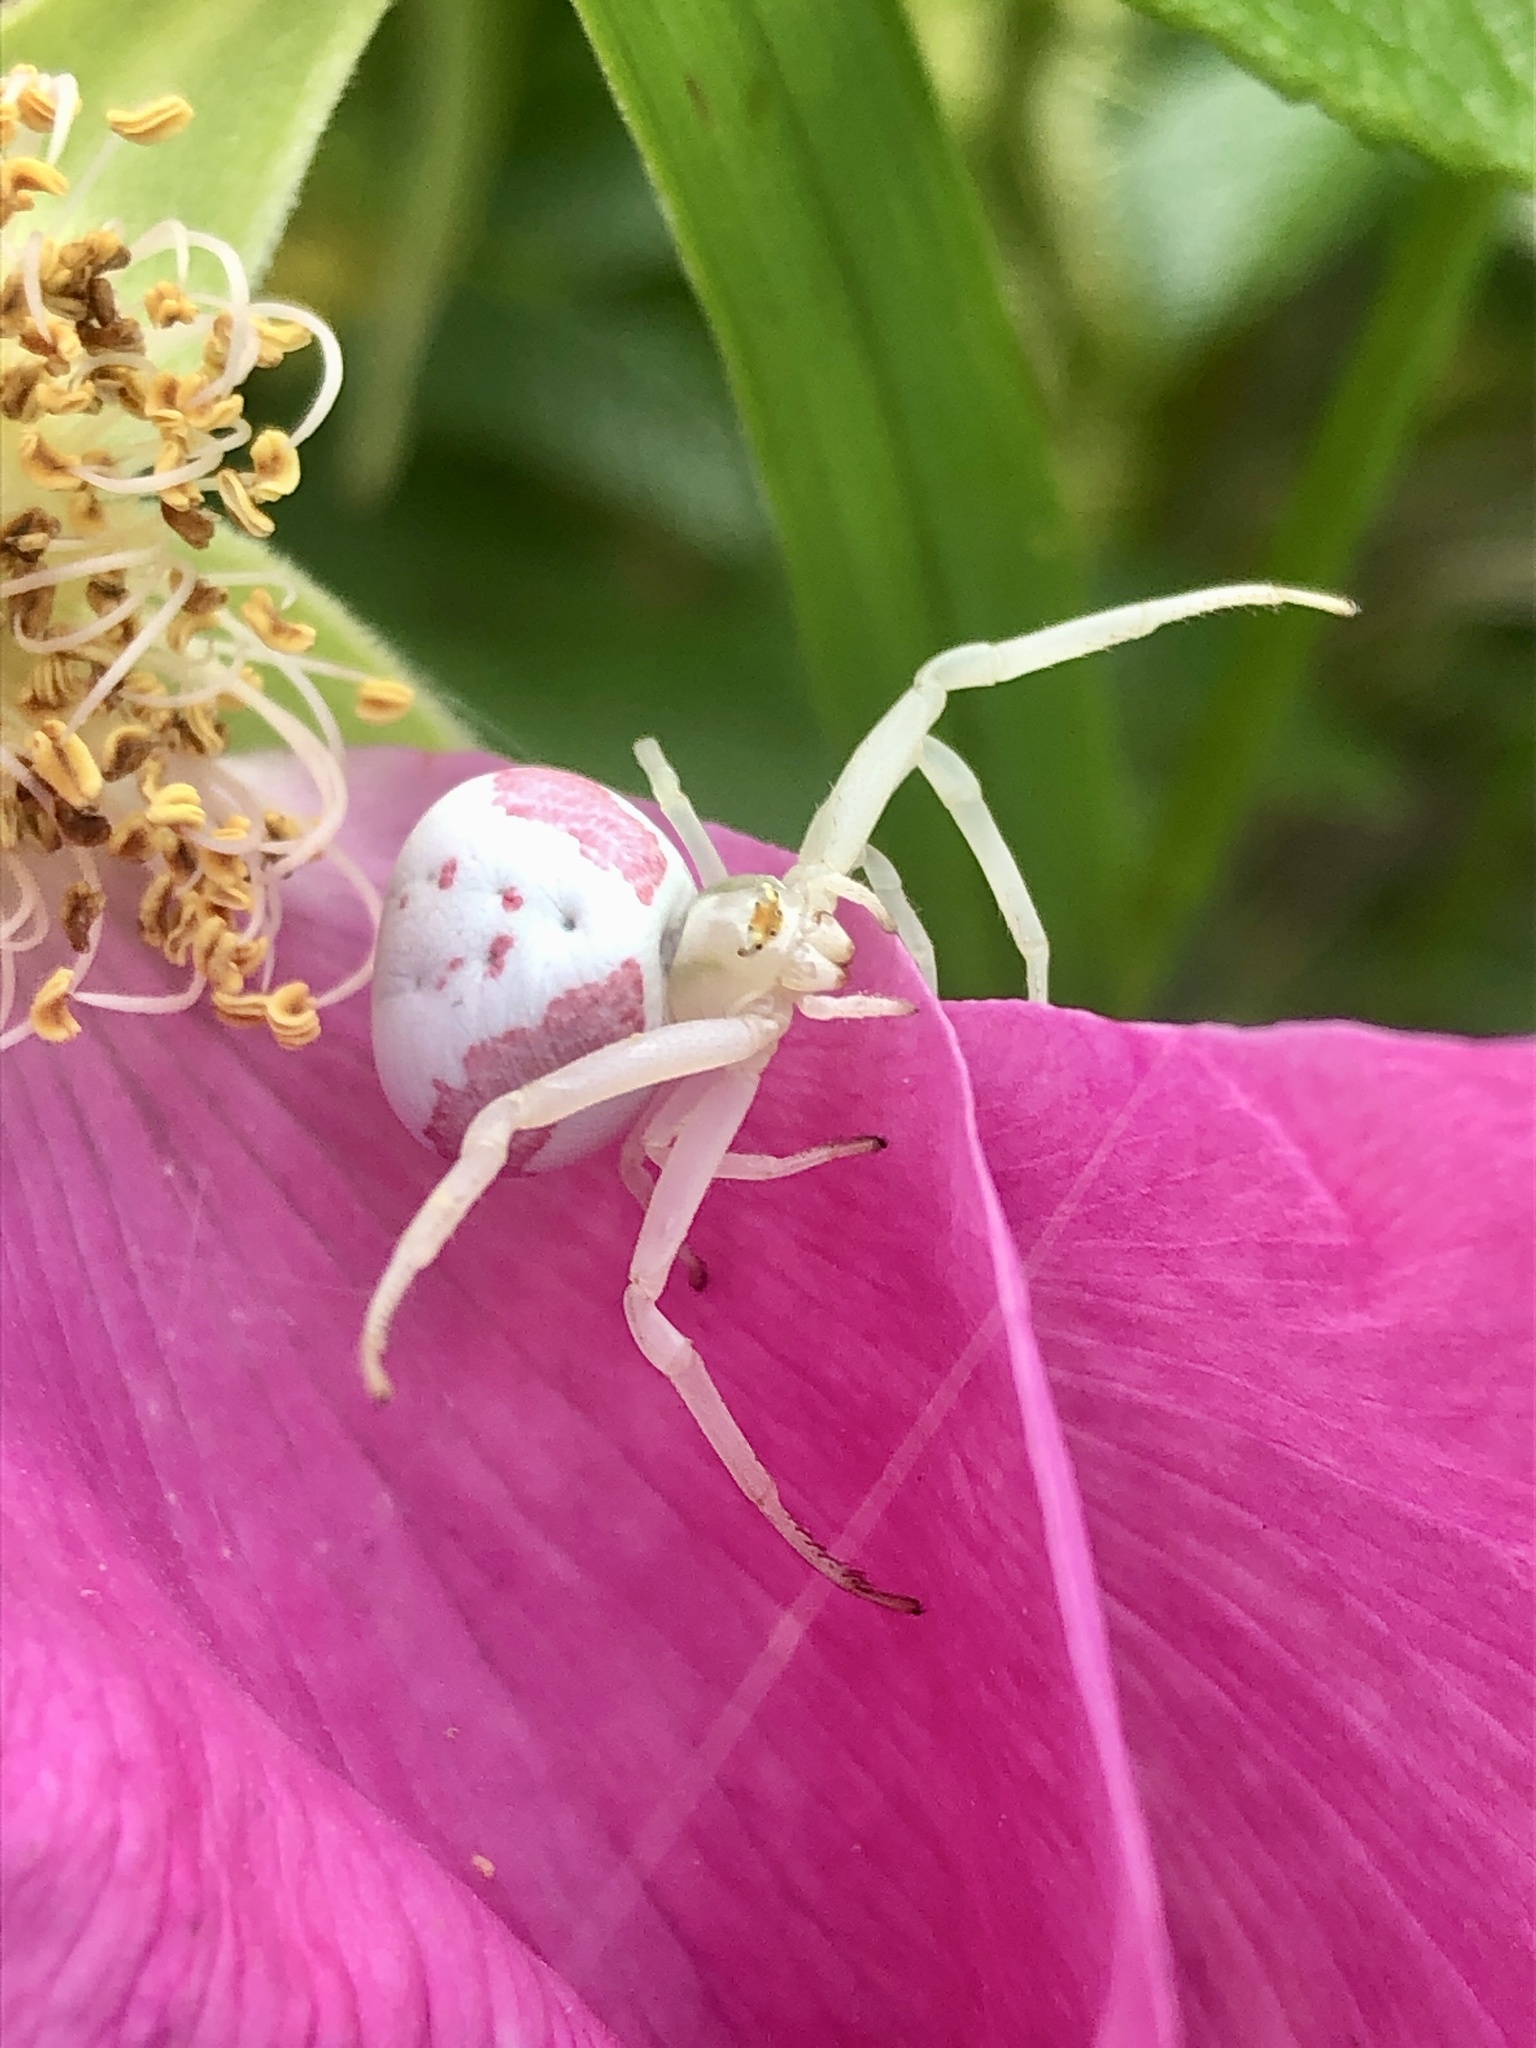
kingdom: Animalia
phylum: Arthropoda
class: Arachnida
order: Araneae
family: Thomisidae
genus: Misumena
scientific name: Misumena vatia
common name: Goldenrod crab spider
